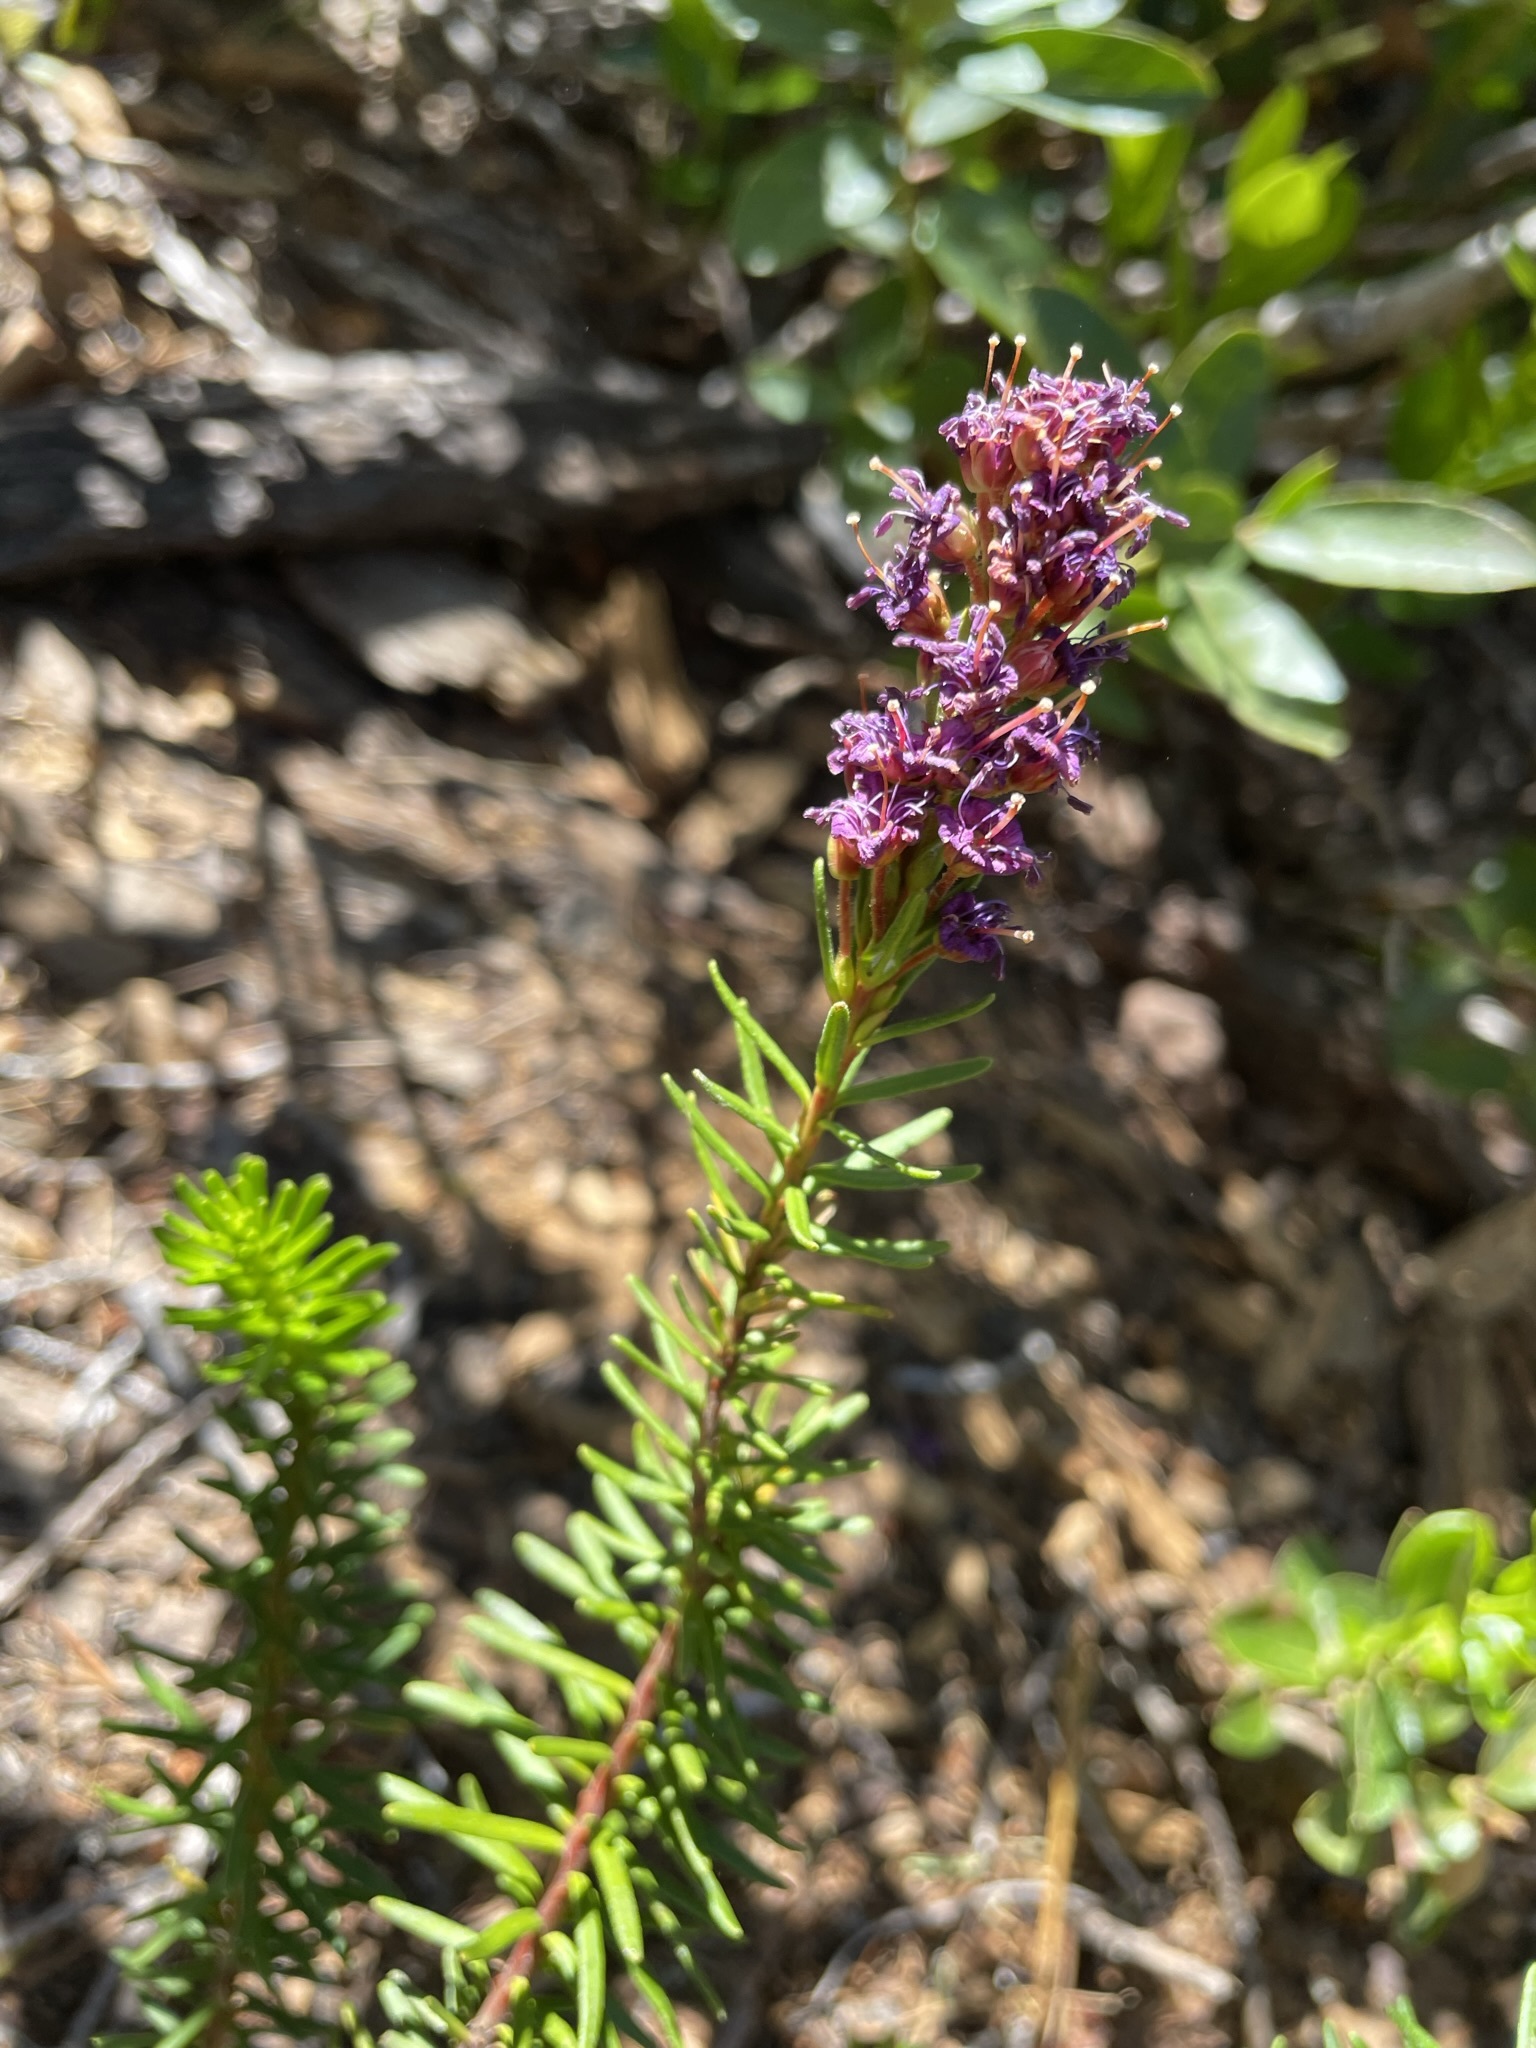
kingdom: Plantae
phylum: Tracheophyta
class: Magnoliopsida
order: Ericales
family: Ericaceae
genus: Phyllodoce
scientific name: Phyllodoce breweri
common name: Brewer's mountain-heather
